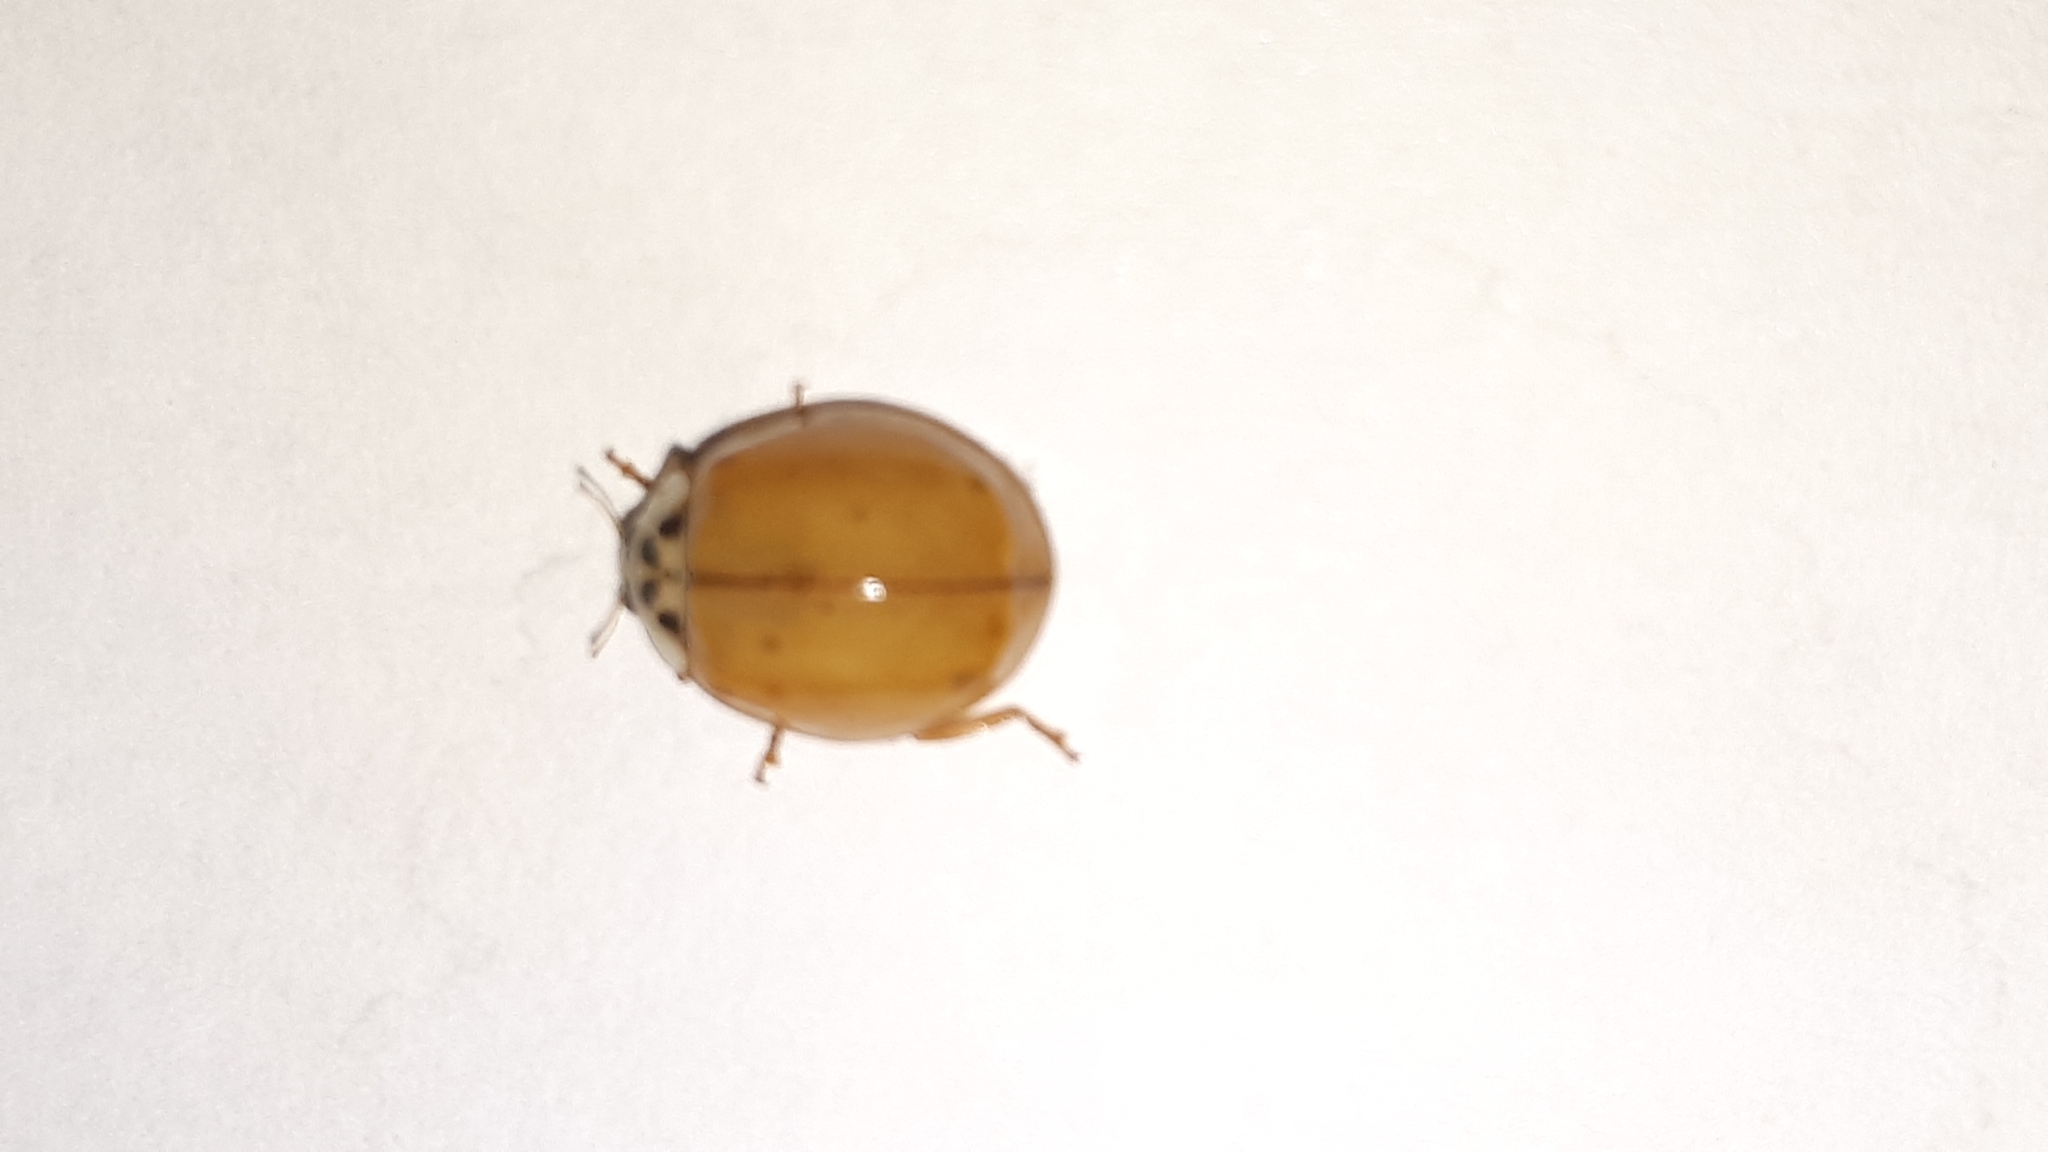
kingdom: Animalia
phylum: Arthropoda
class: Insecta
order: Coleoptera
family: Coccinellidae
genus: Harmonia
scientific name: Harmonia axyridis
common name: Harlequin ladybird
